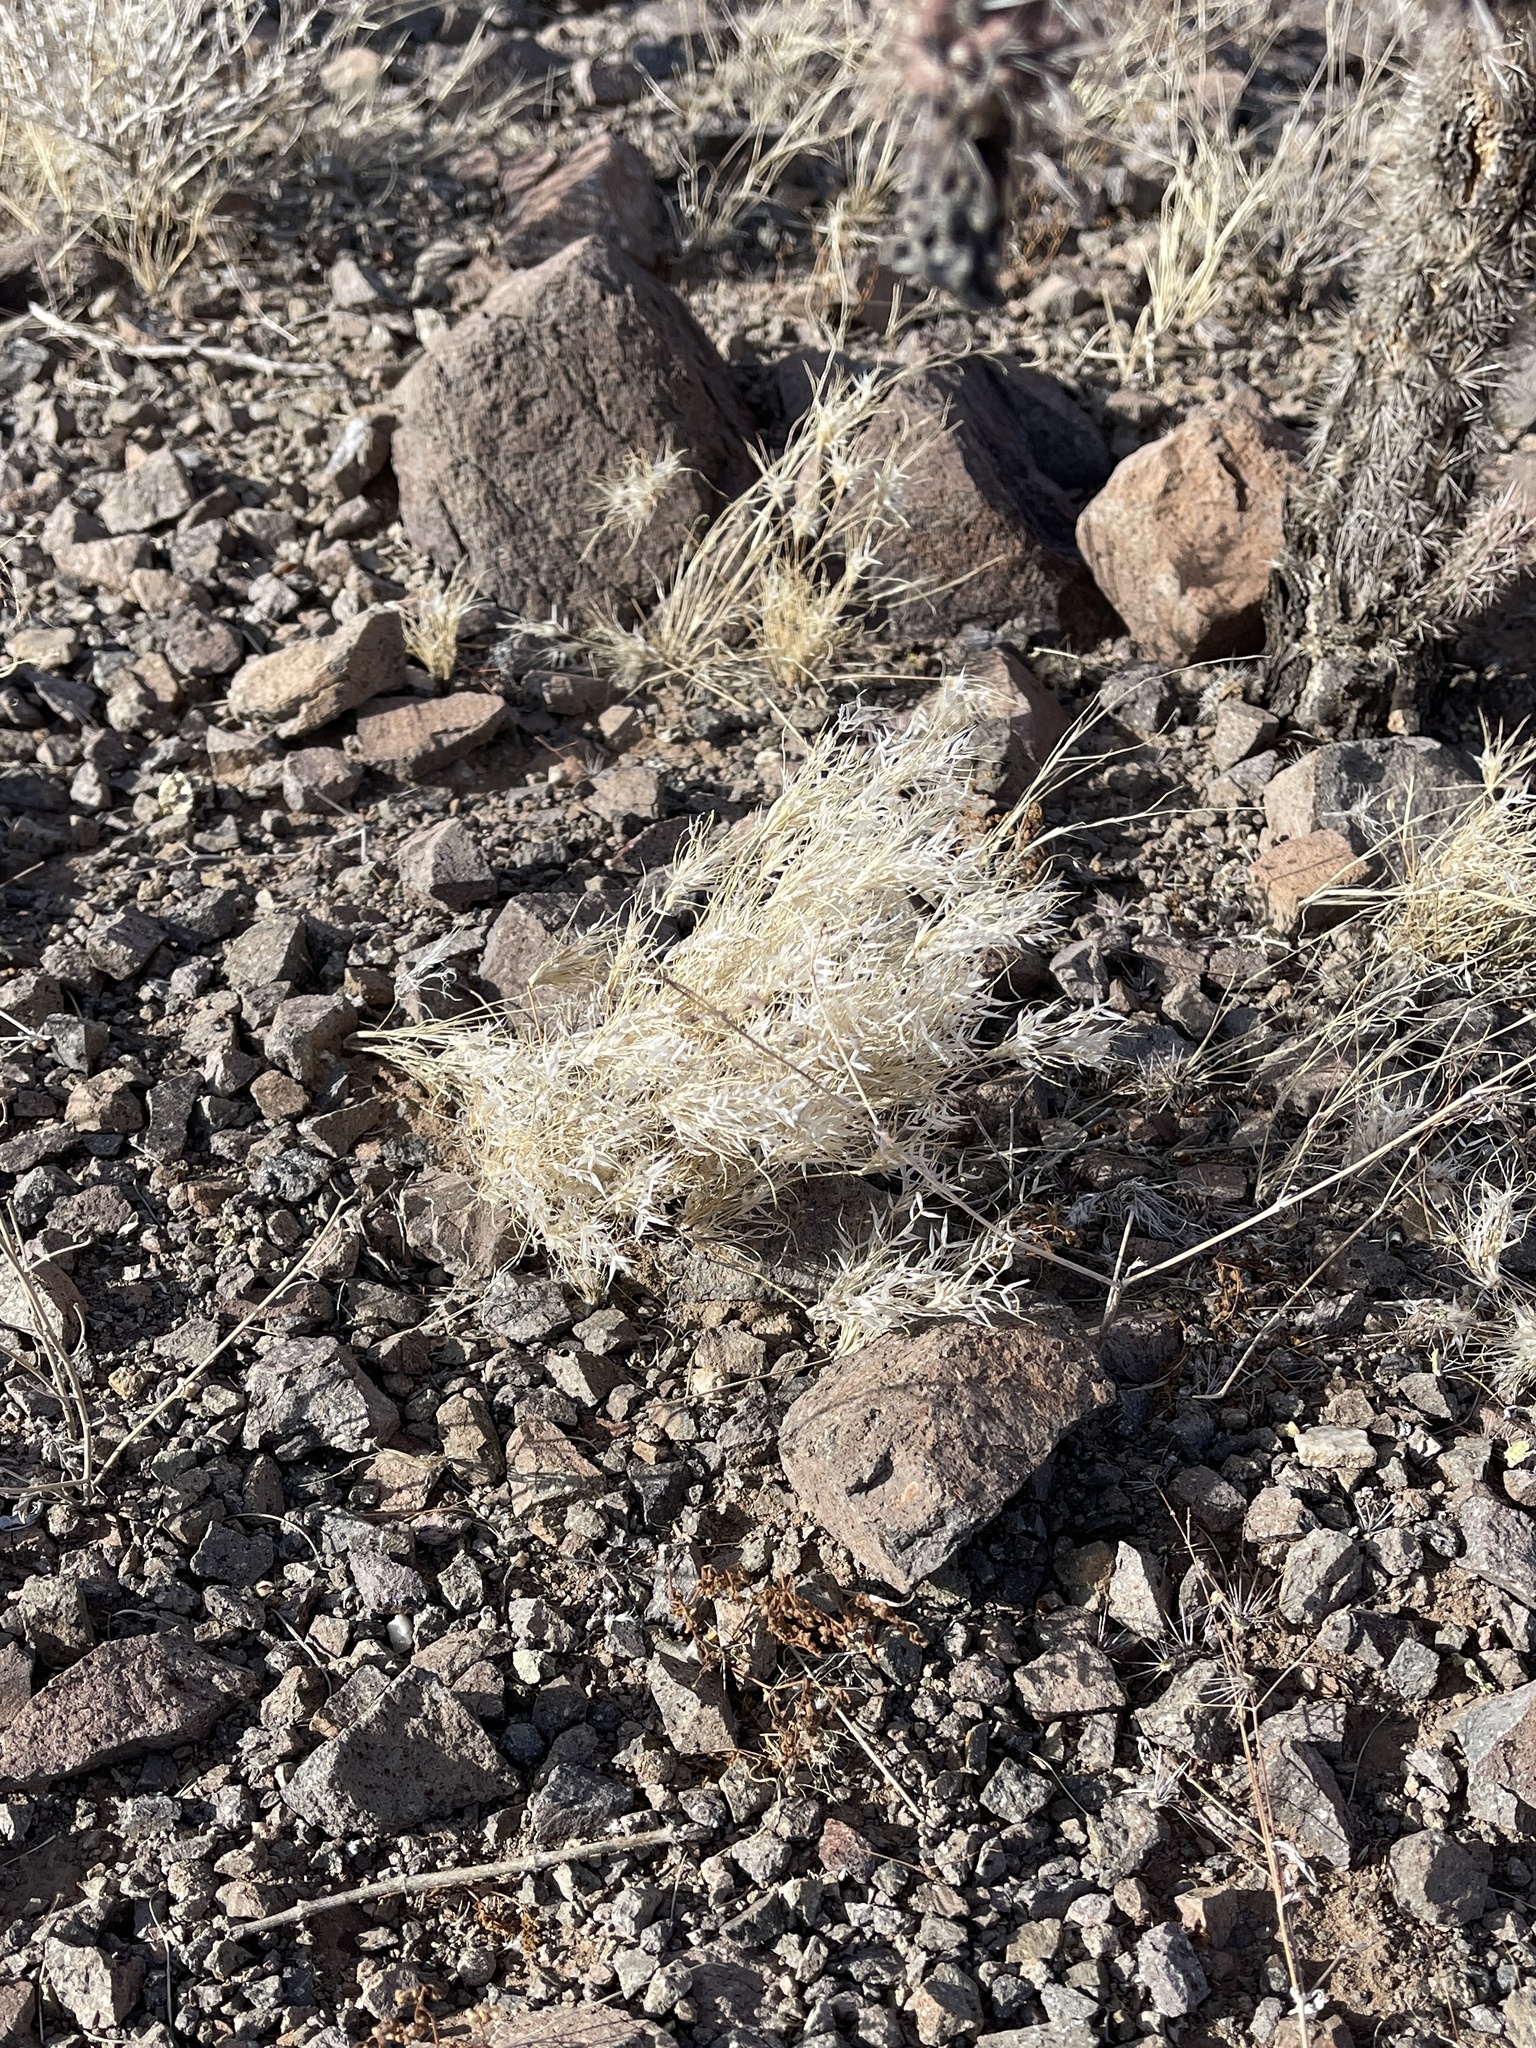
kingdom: Plantae
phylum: Tracheophyta
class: Liliopsida
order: Poales
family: Poaceae
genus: Dasyochloa
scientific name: Dasyochloa pulchella
